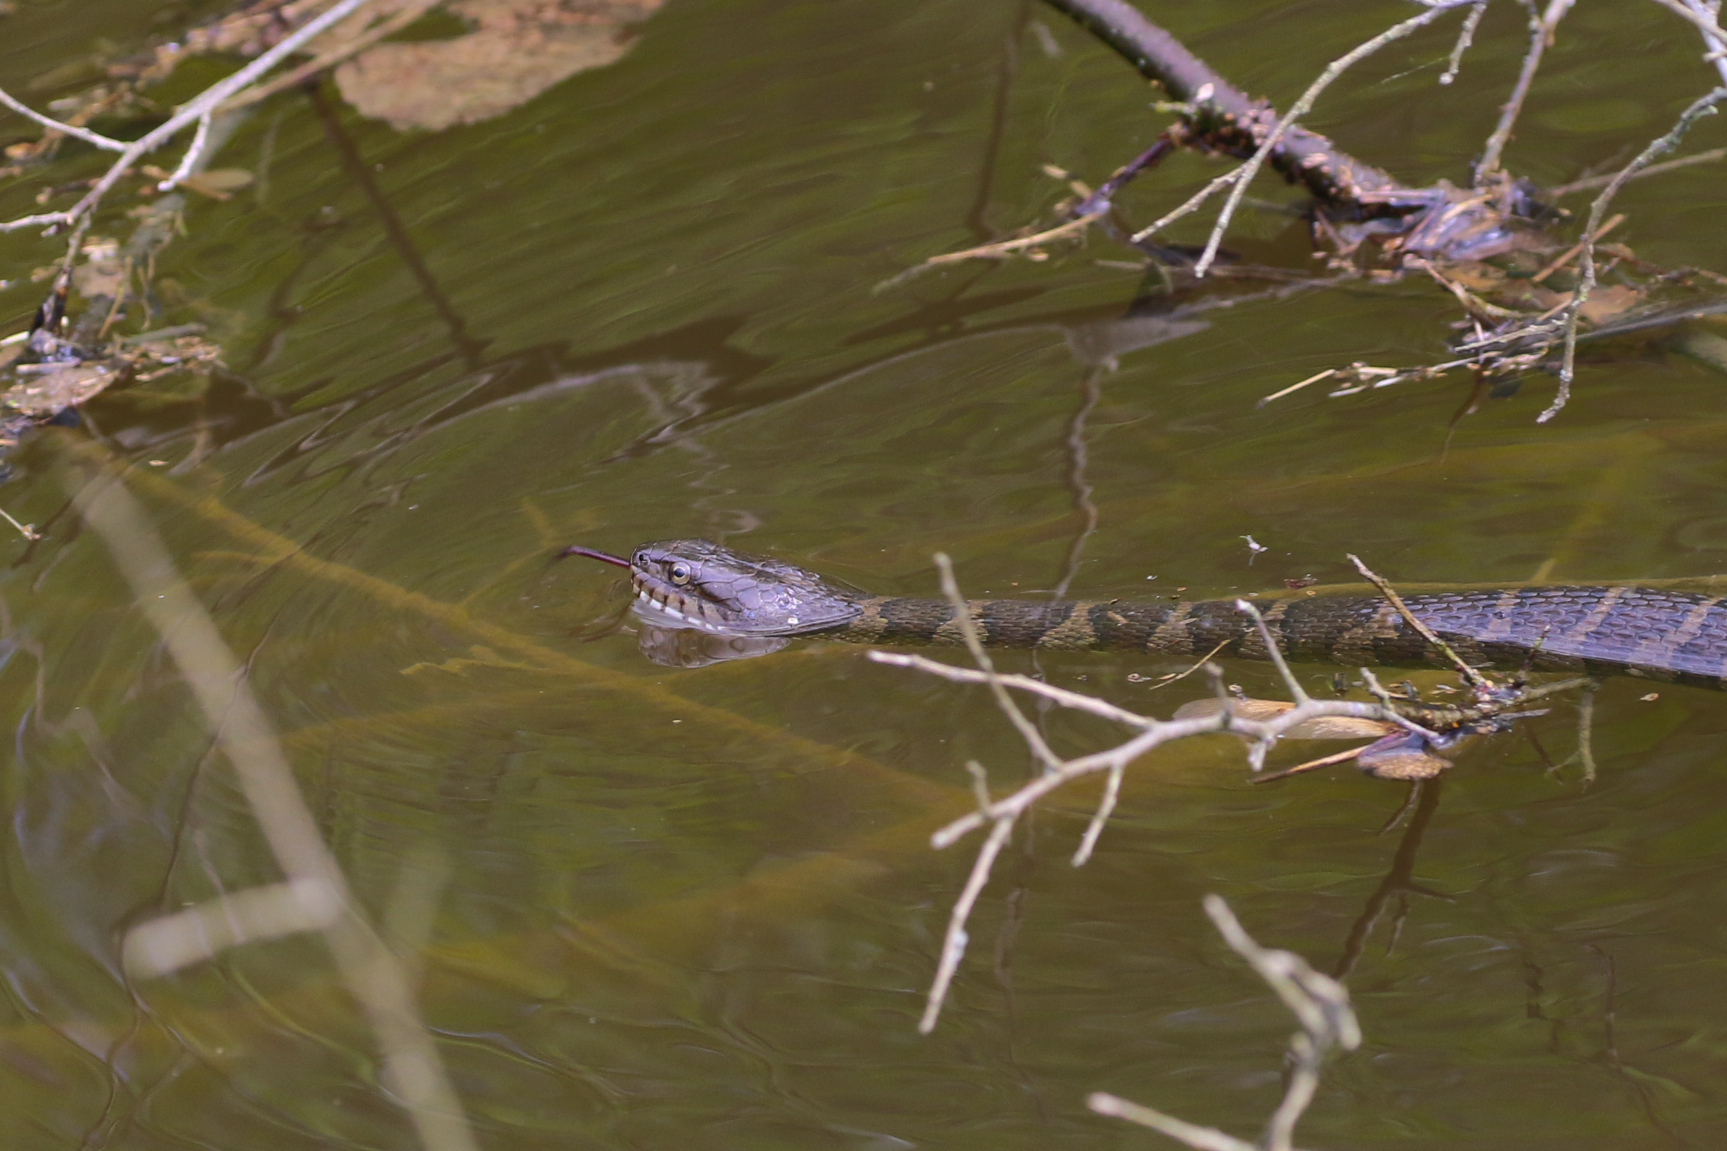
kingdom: Animalia
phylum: Chordata
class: Squamata
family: Colubridae
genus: Nerodia
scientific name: Nerodia sipedon
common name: Northern water snake
